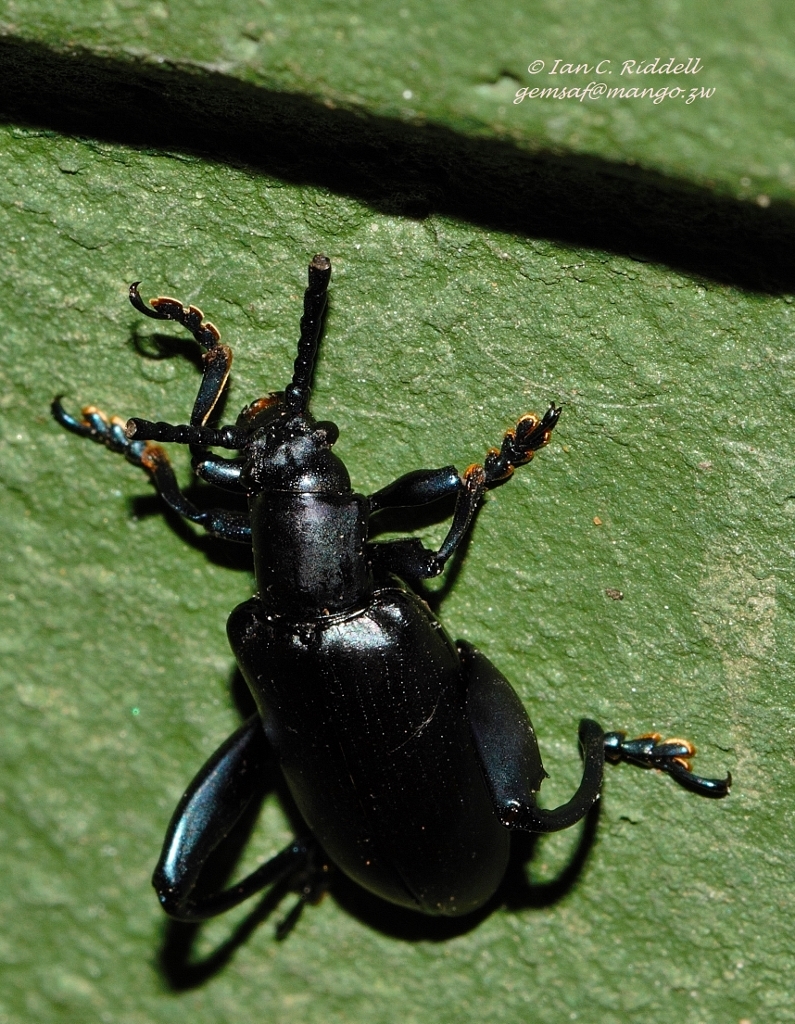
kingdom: Animalia
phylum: Arthropoda
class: Insecta
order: Coleoptera
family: Chrysomelidae
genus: Sagra
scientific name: Sagra
